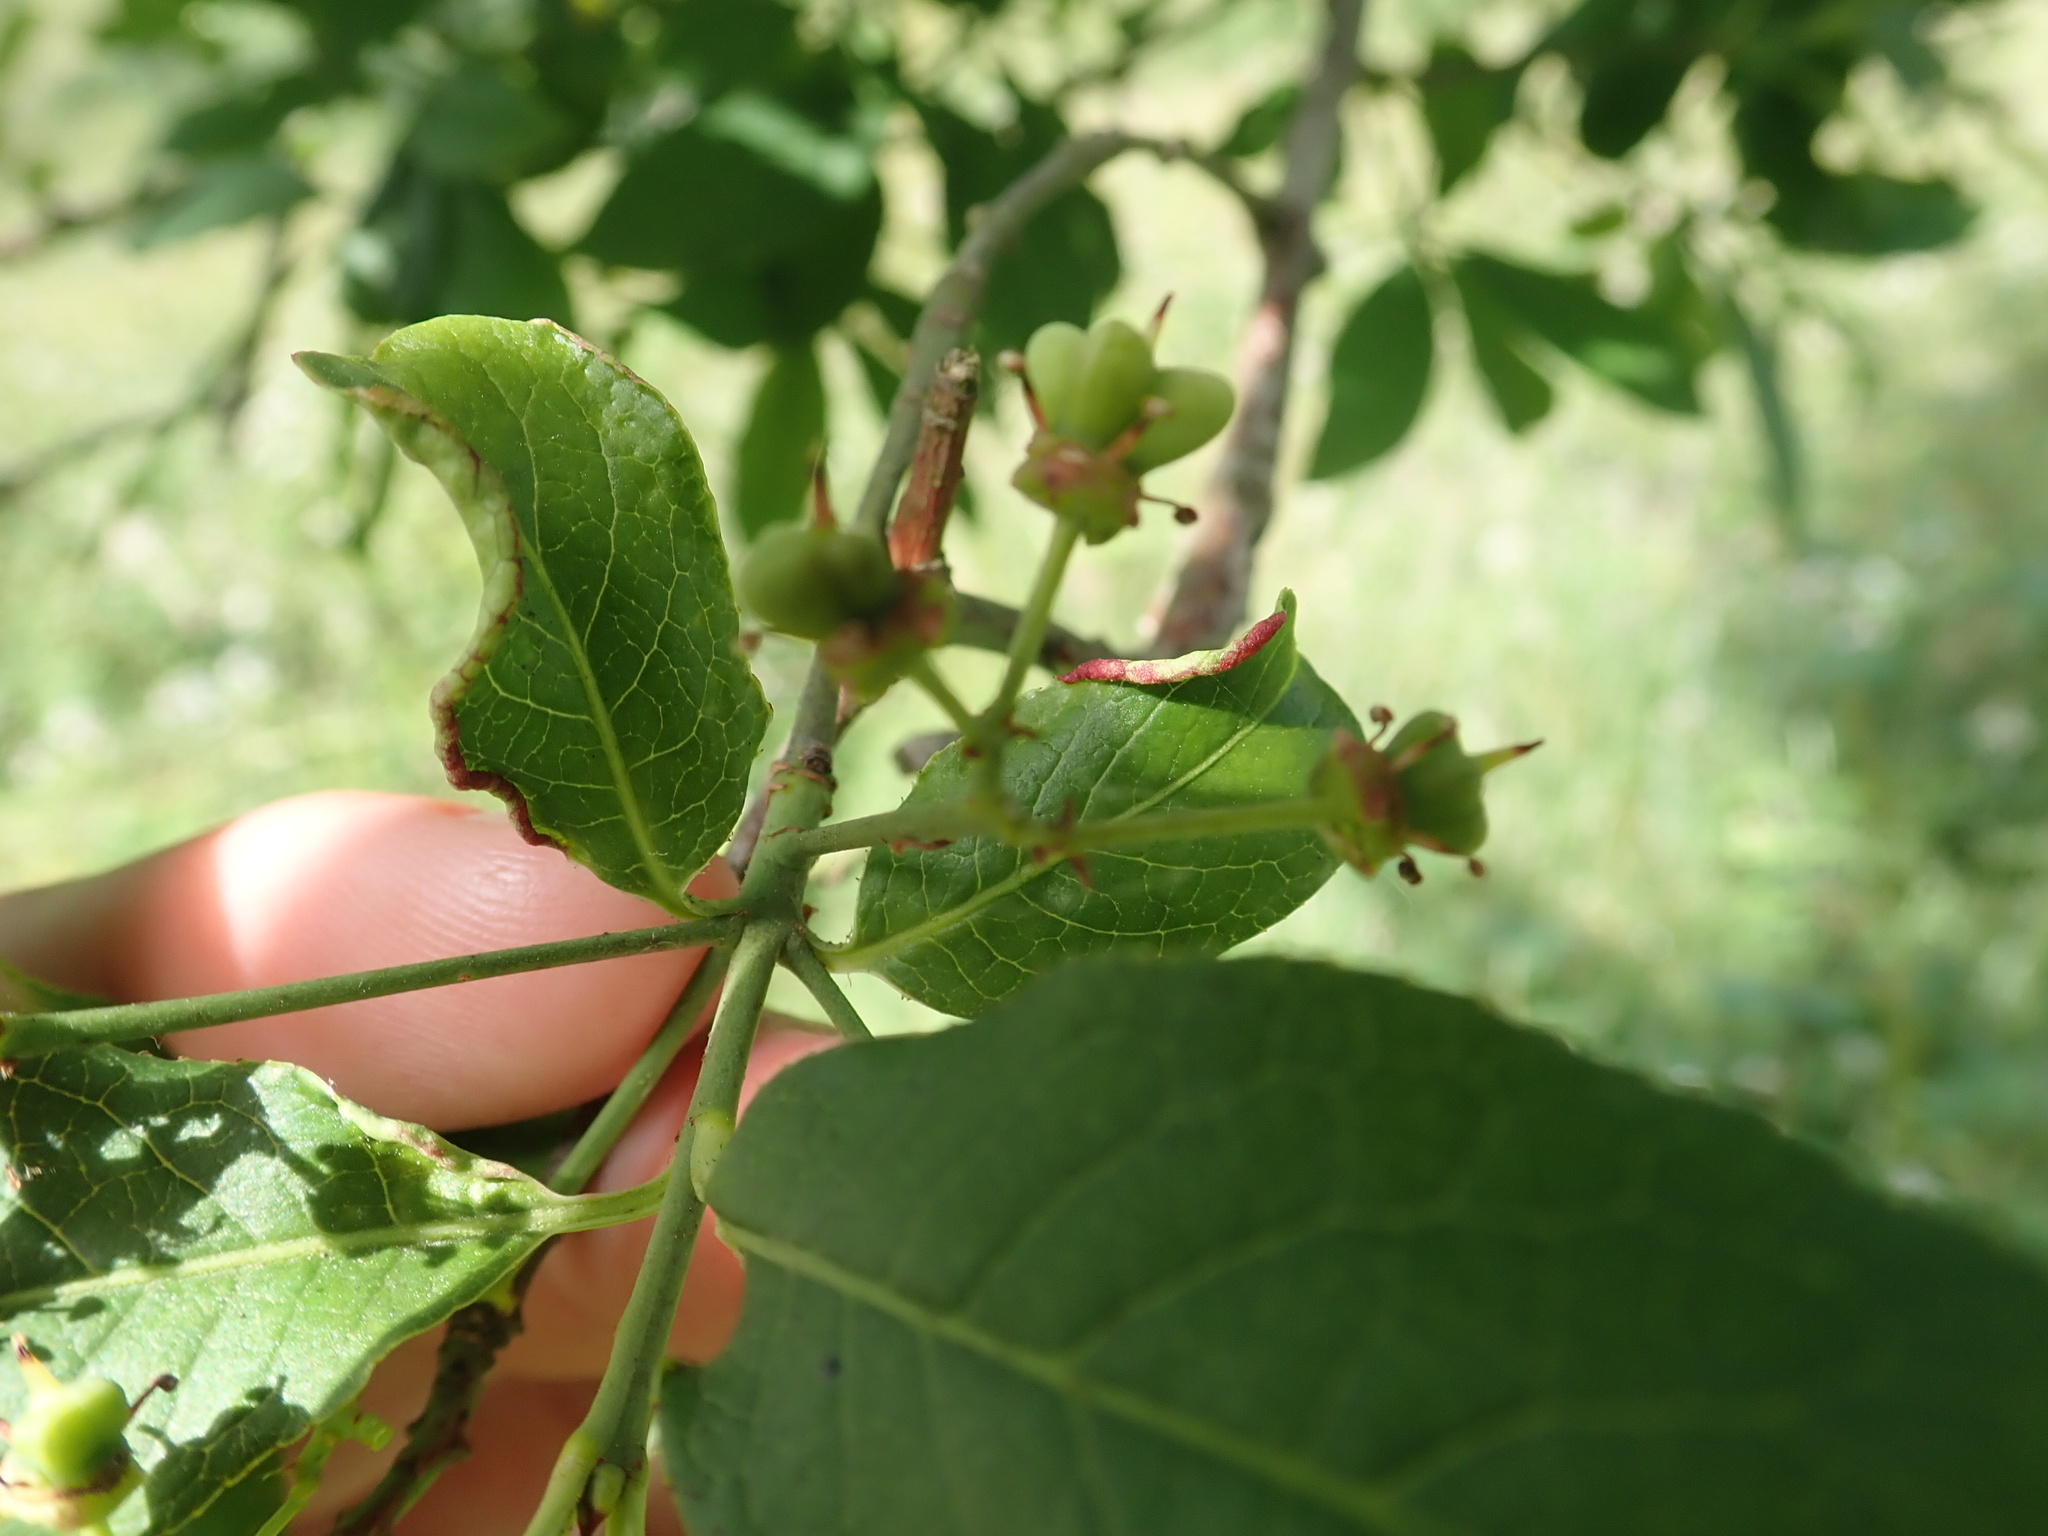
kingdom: Plantae
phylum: Tracheophyta
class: Magnoliopsida
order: Celastrales
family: Celastraceae
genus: Euonymus
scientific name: Euonymus europaeus
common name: Spindle
